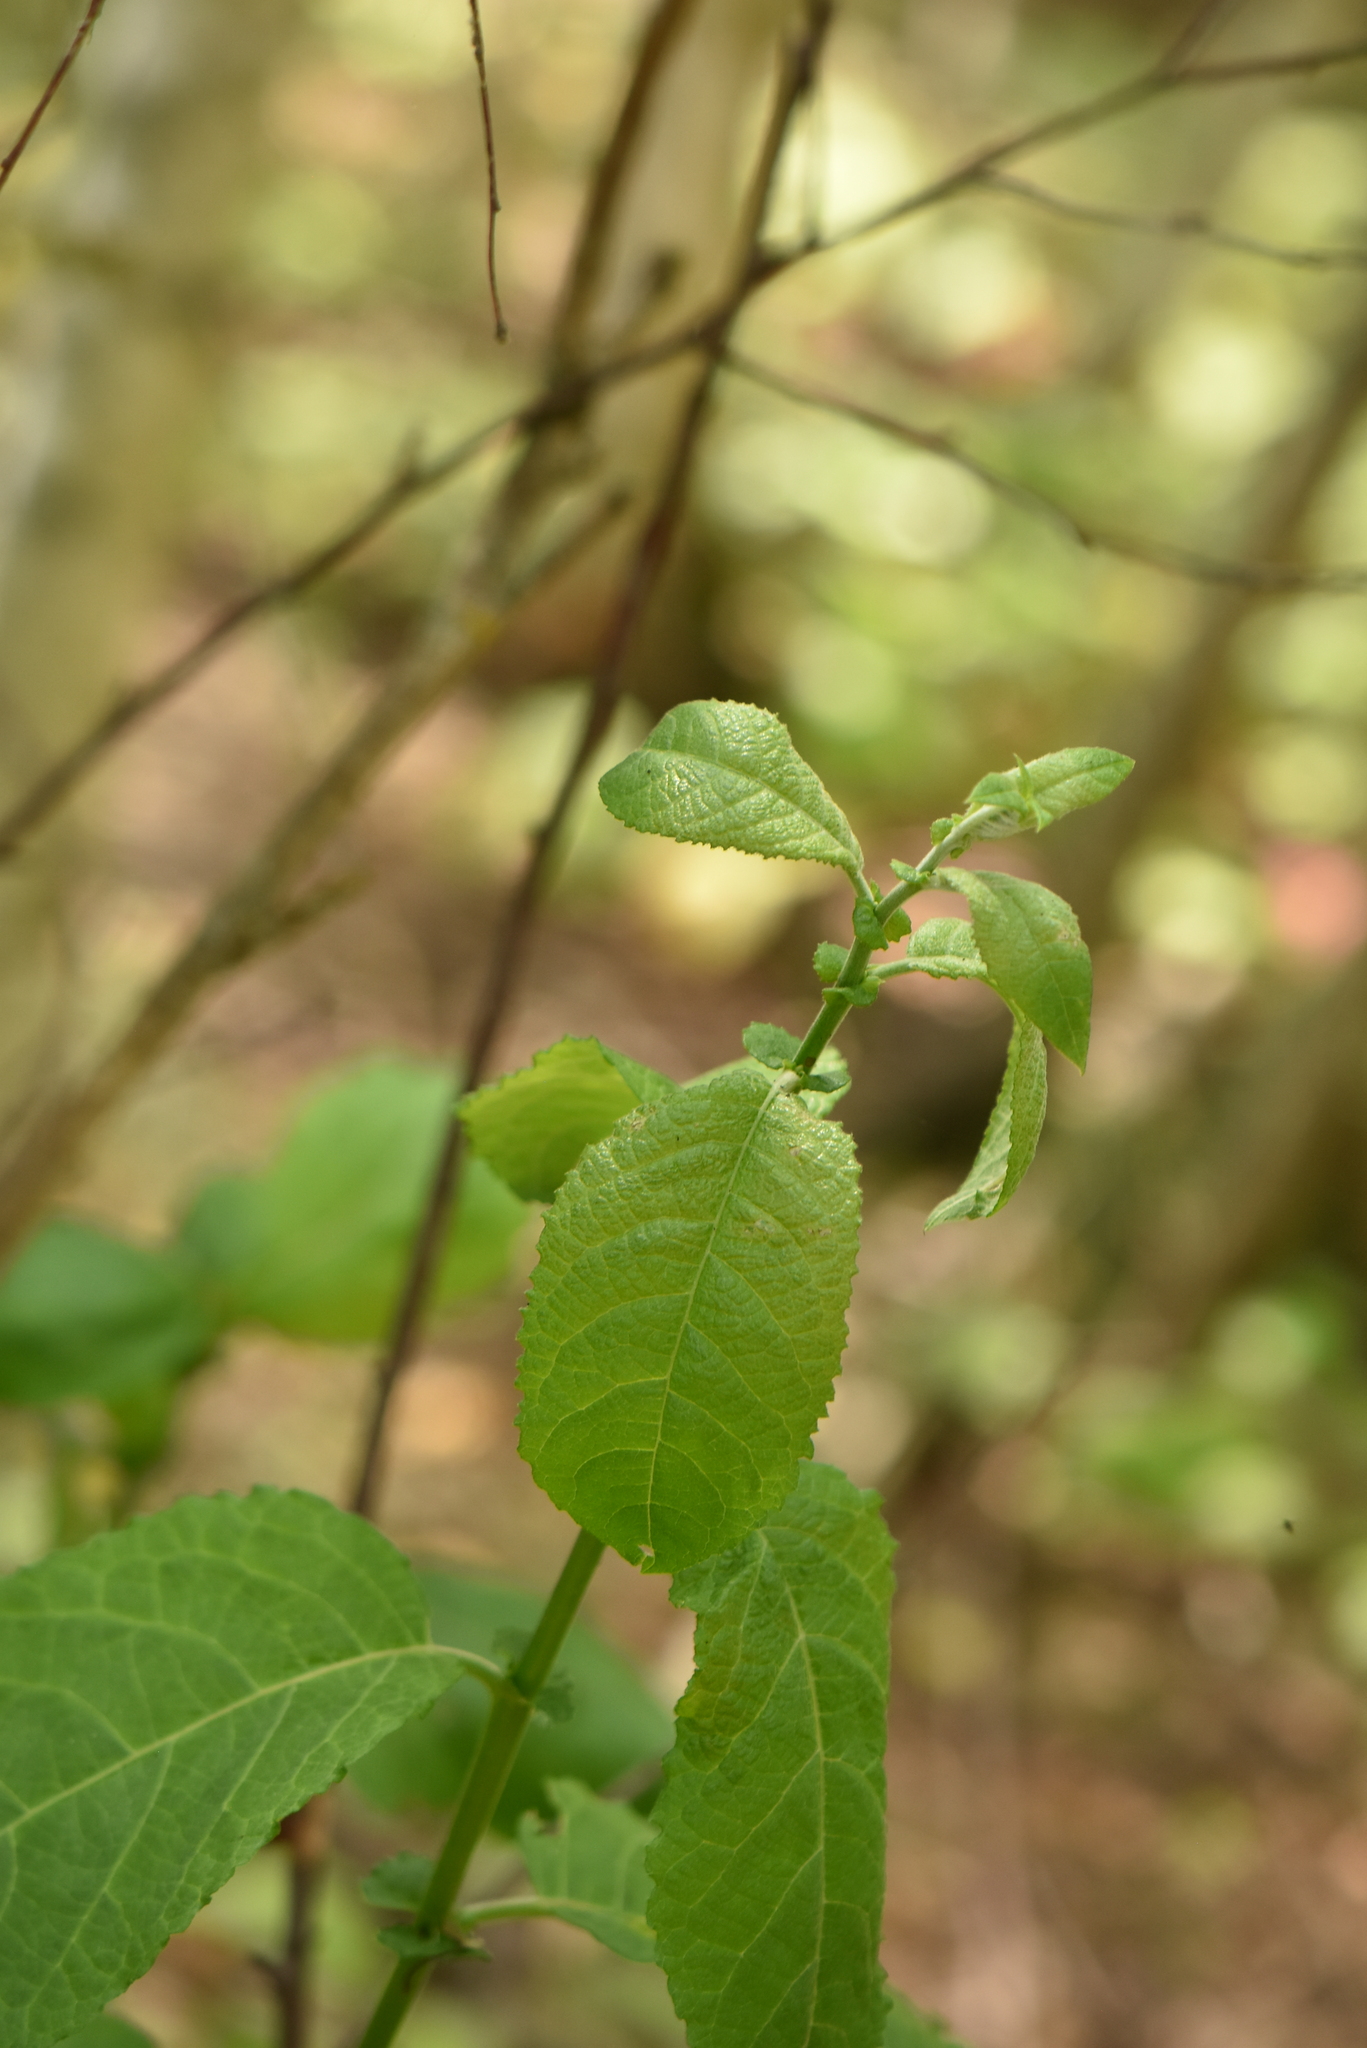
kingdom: Plantae
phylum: Tracheophyta
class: Magnoliopsida
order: Malpighiales
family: Salicaceae
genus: Salix
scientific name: Salix caprea
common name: Goat willow
